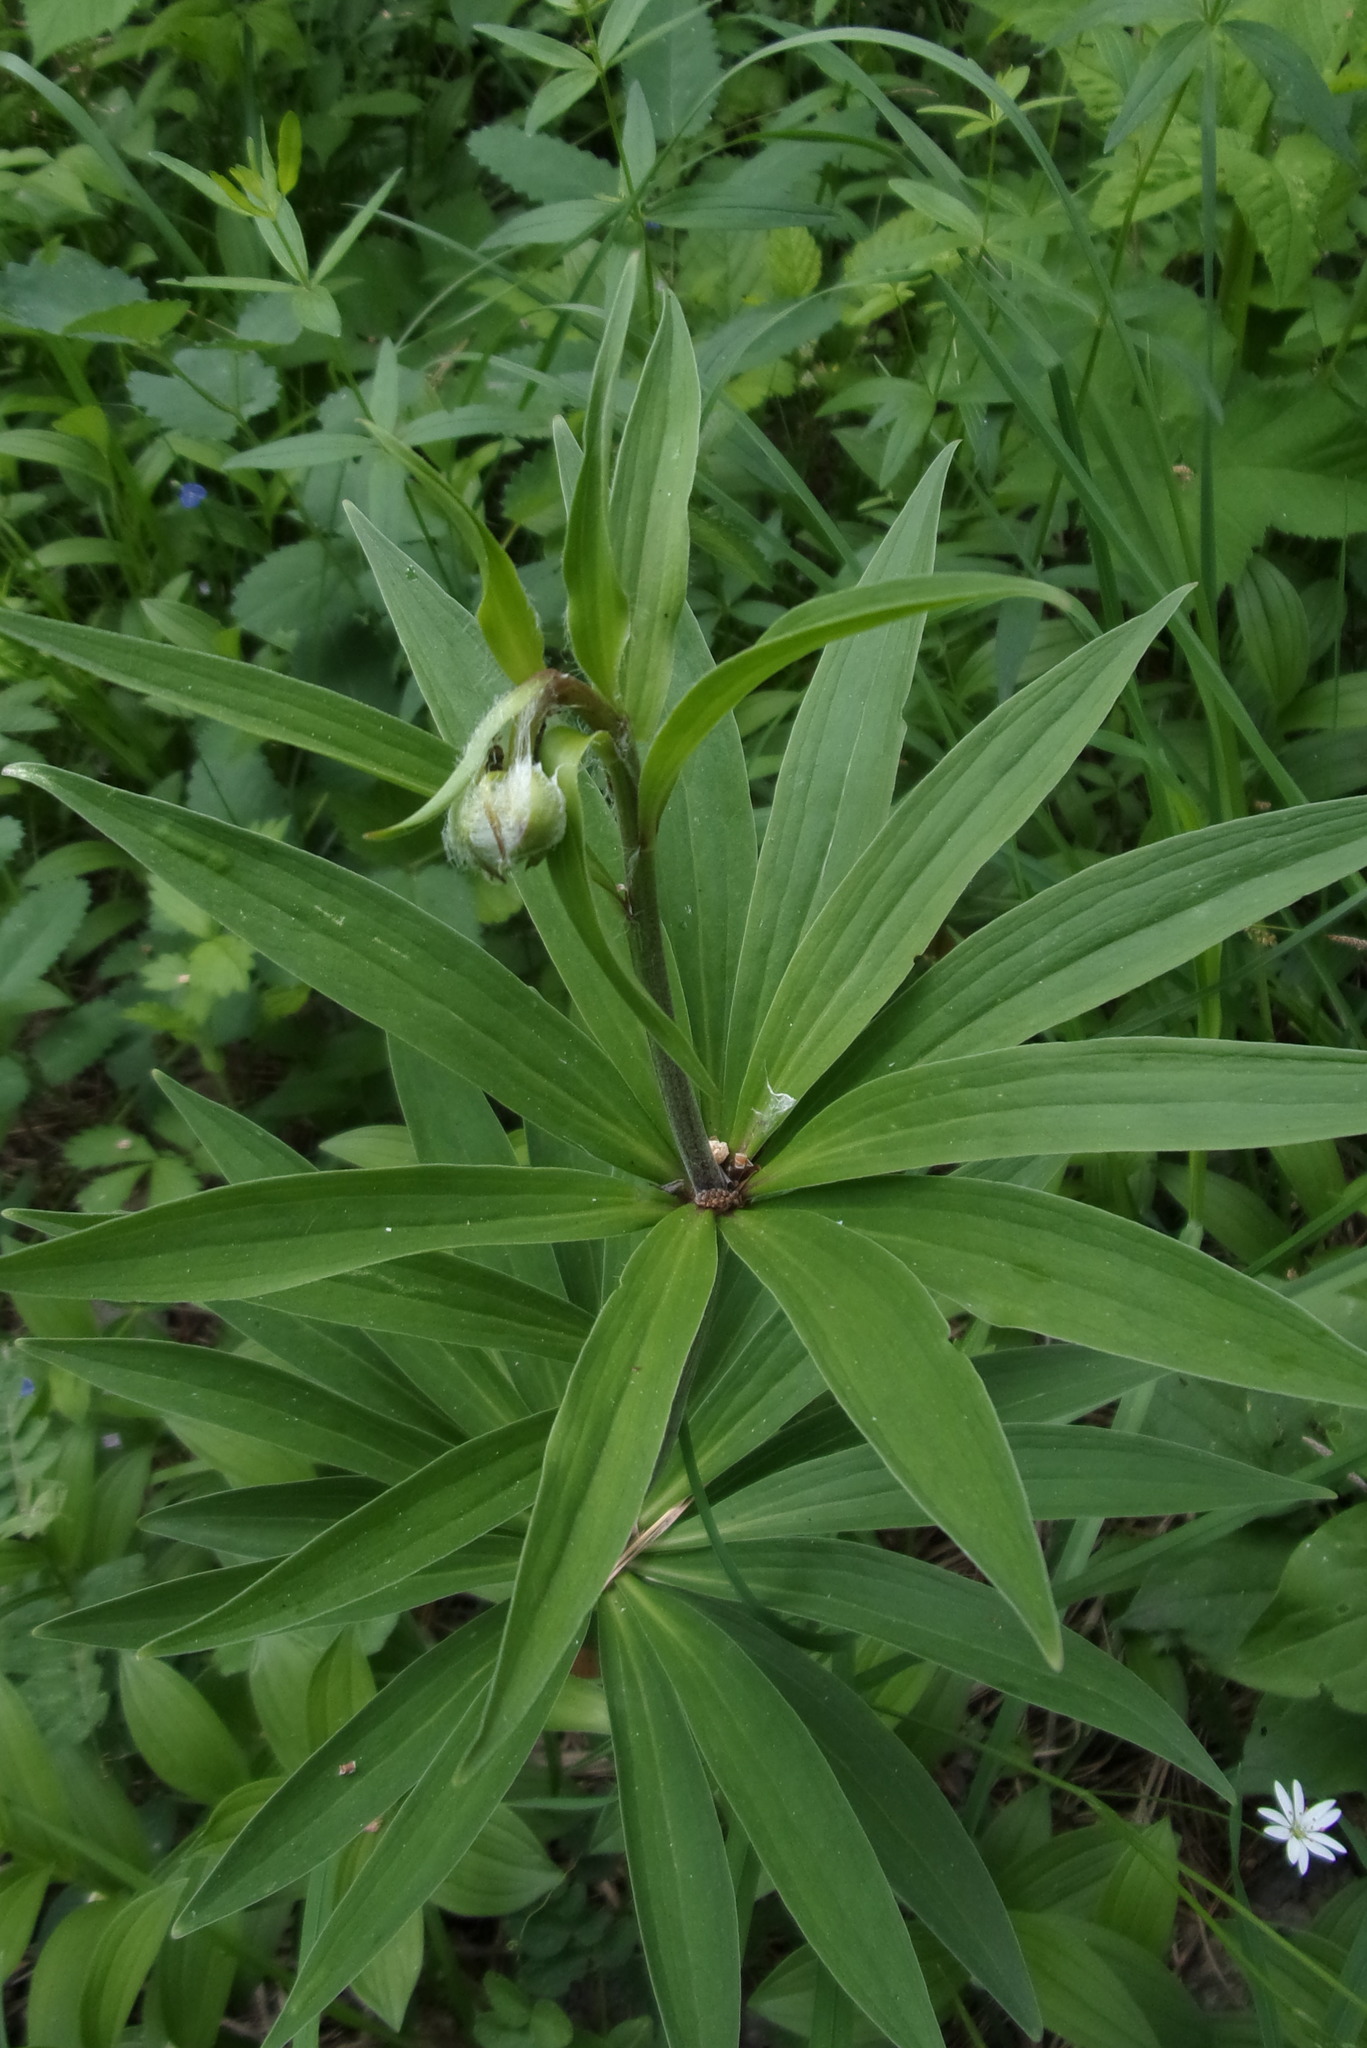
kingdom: Plantae
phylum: Tracheophyta
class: Liliopsida
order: Liliales
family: Liliaceae
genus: Lilium
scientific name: Lilium martagon
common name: Martagon lily
